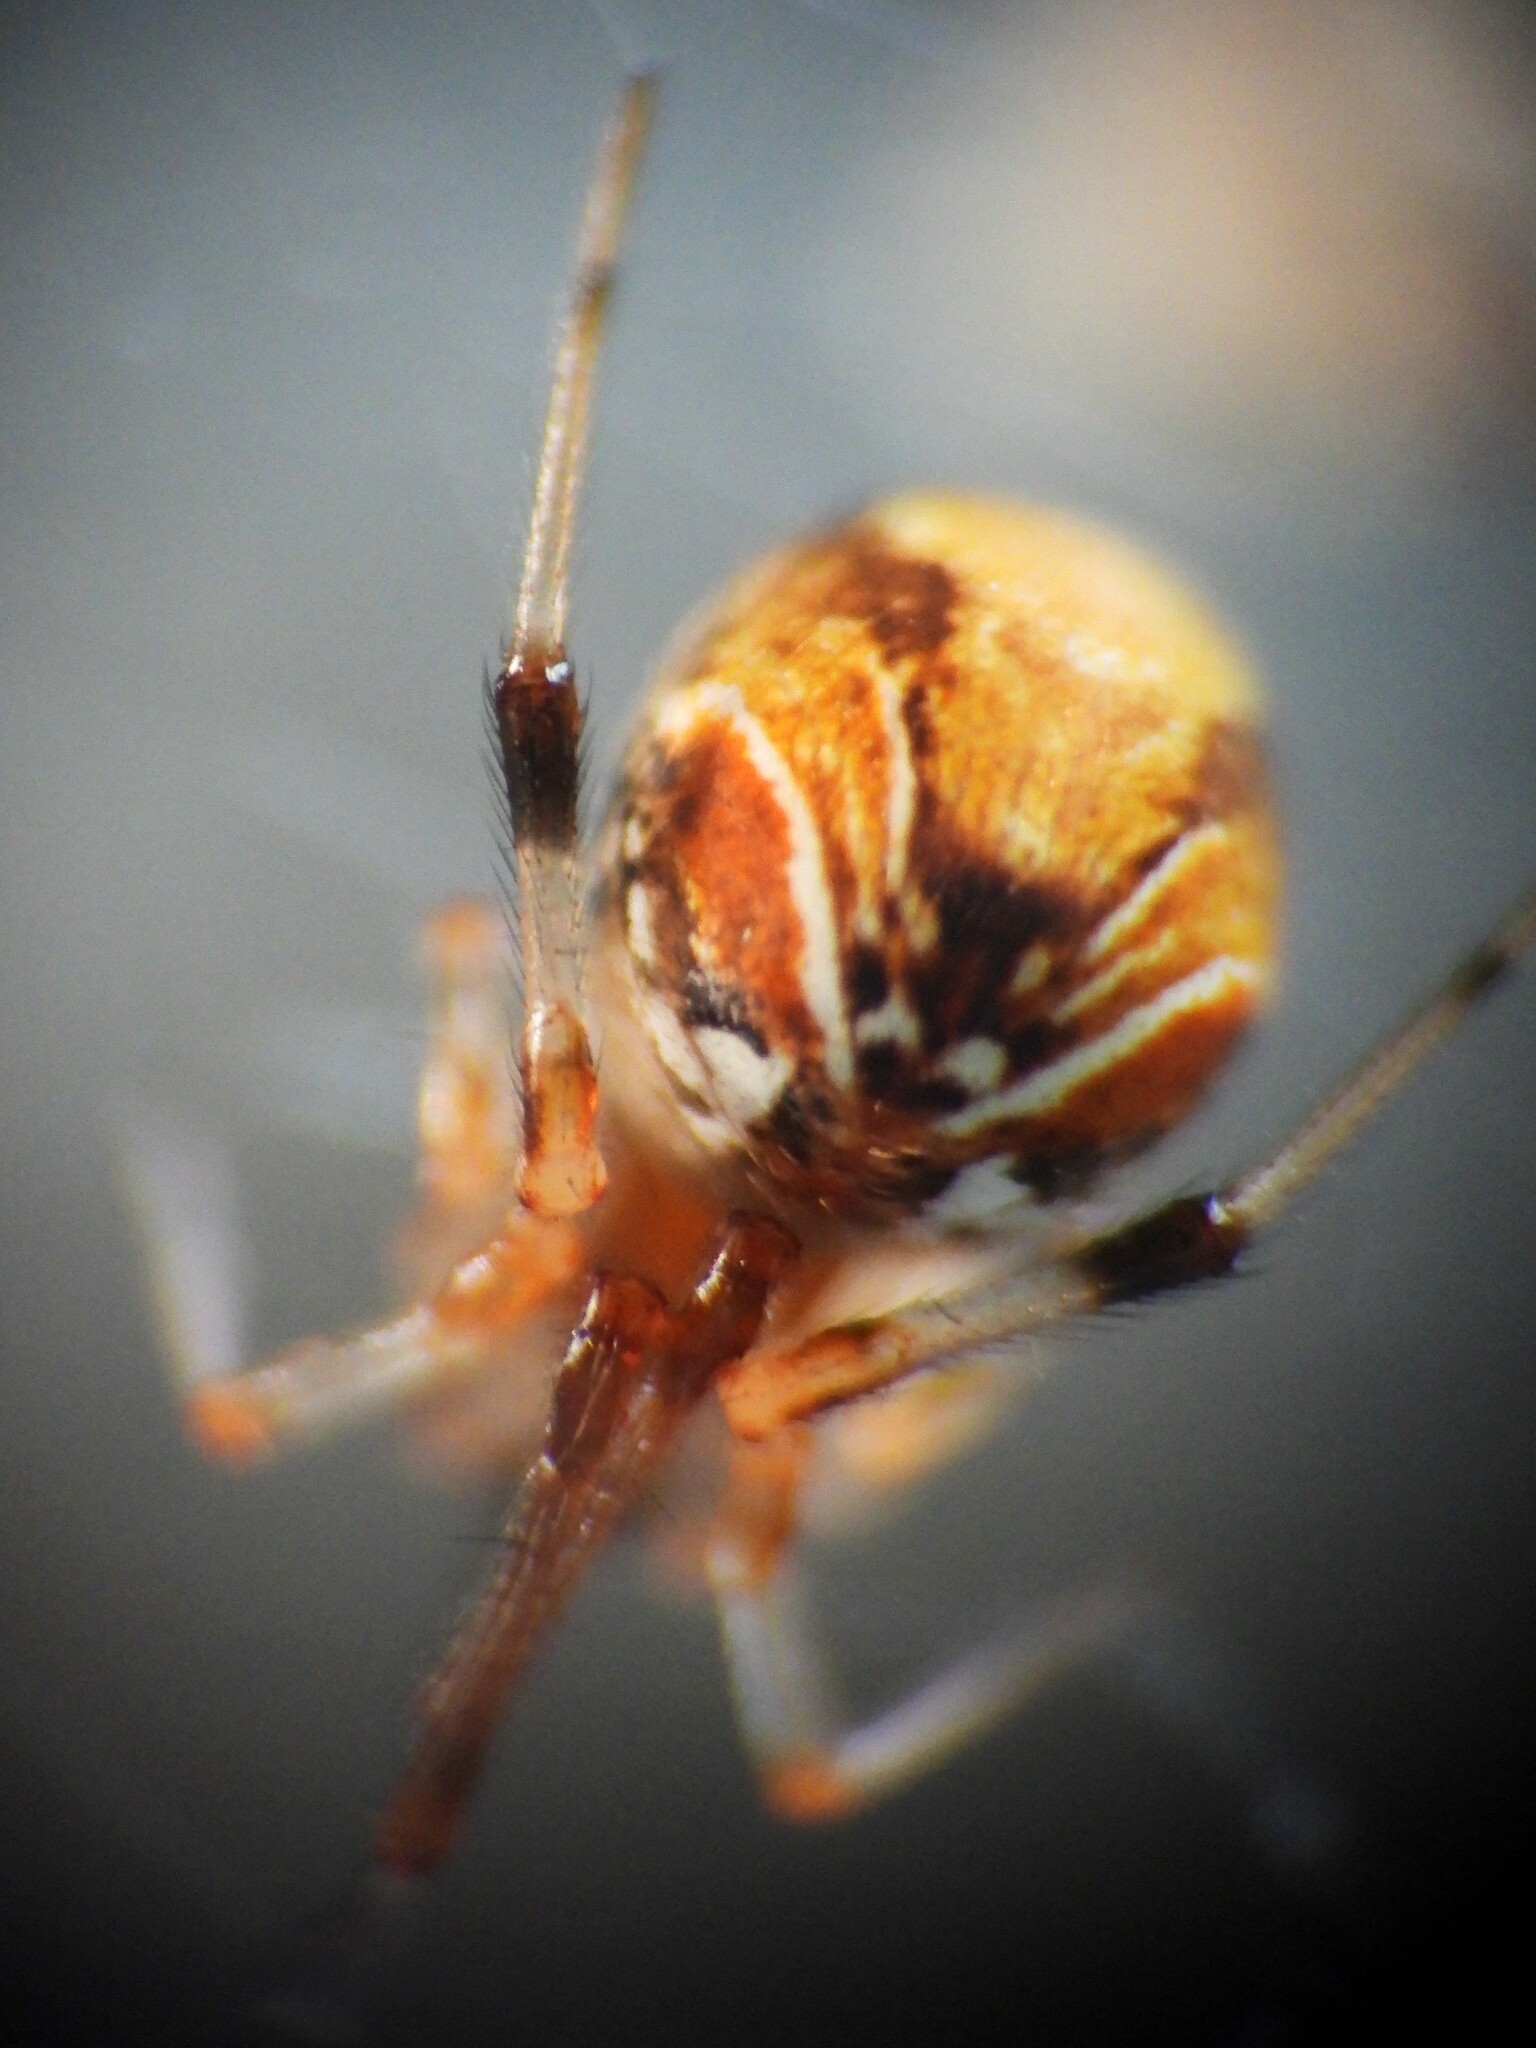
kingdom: Animalia
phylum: Arthropoda
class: Arachnida
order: Araneae
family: Theridiidae
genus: Parasteatoda
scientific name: Parasteatoda lunata
